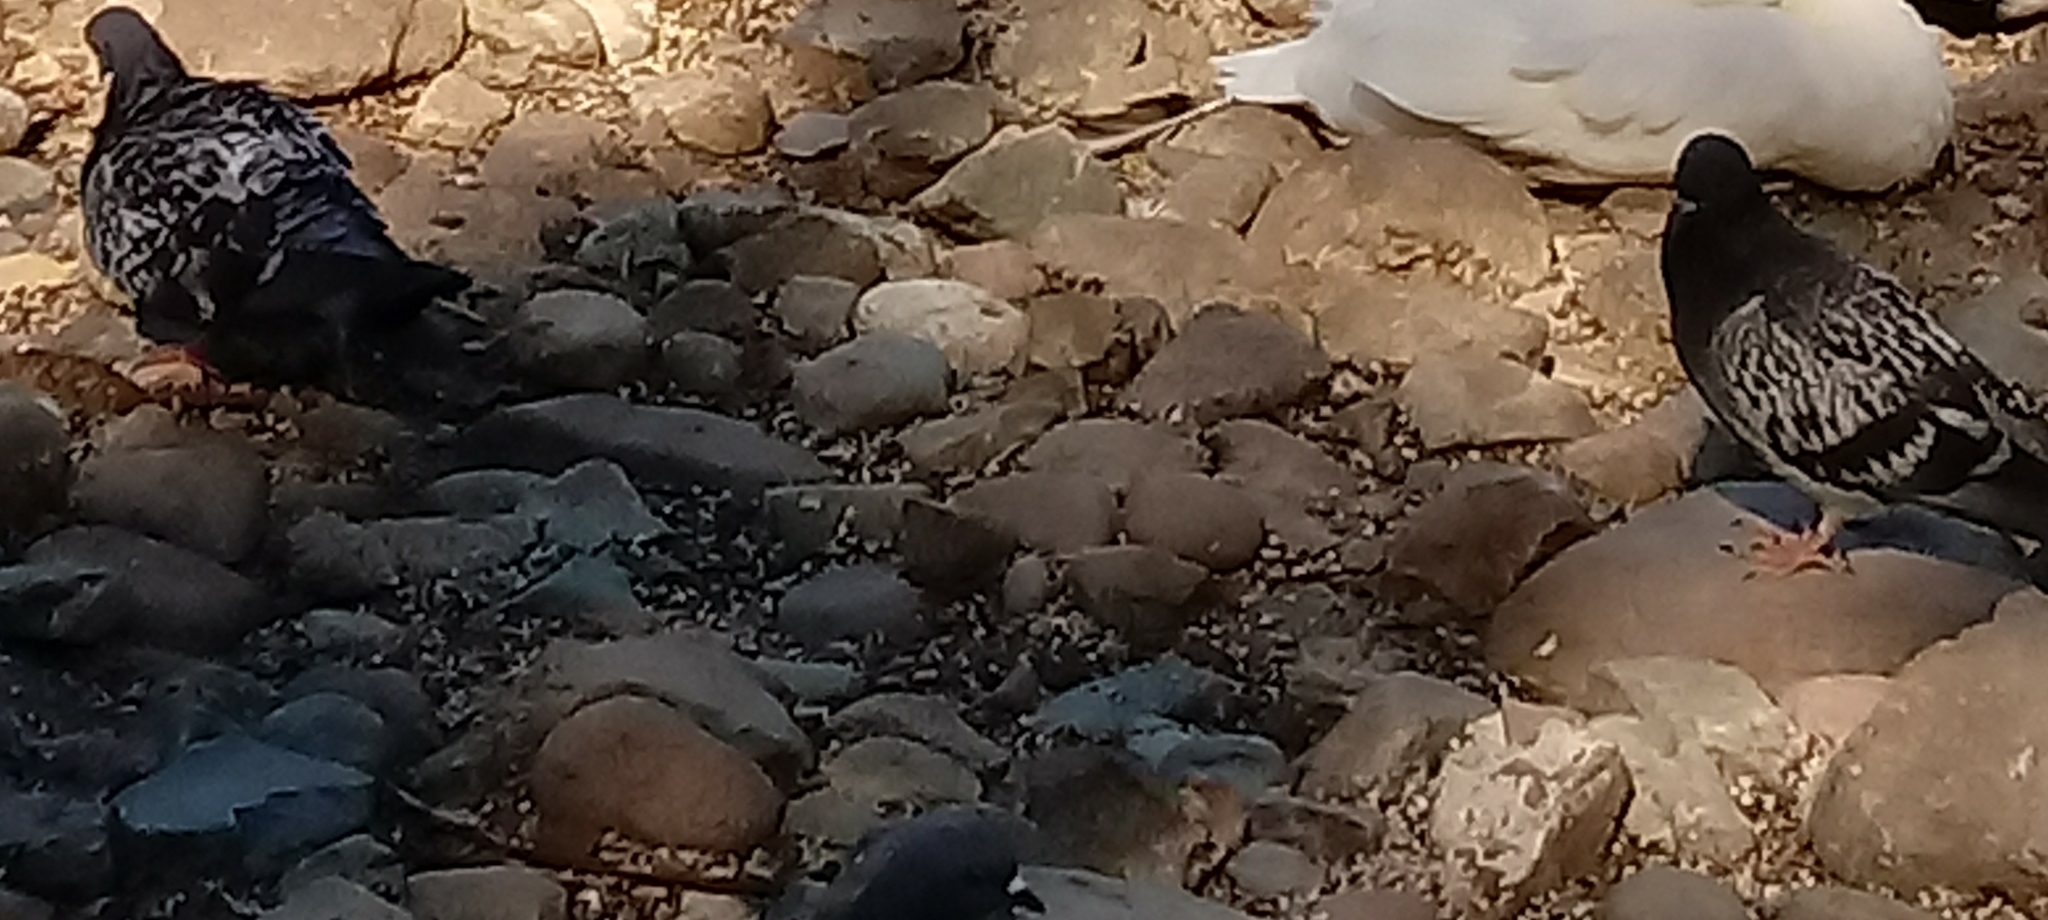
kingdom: Animalia
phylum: Chordata
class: Aves
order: Columbiformes
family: Columbidae
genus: Columba
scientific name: Columba livia
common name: Rock pigeon
